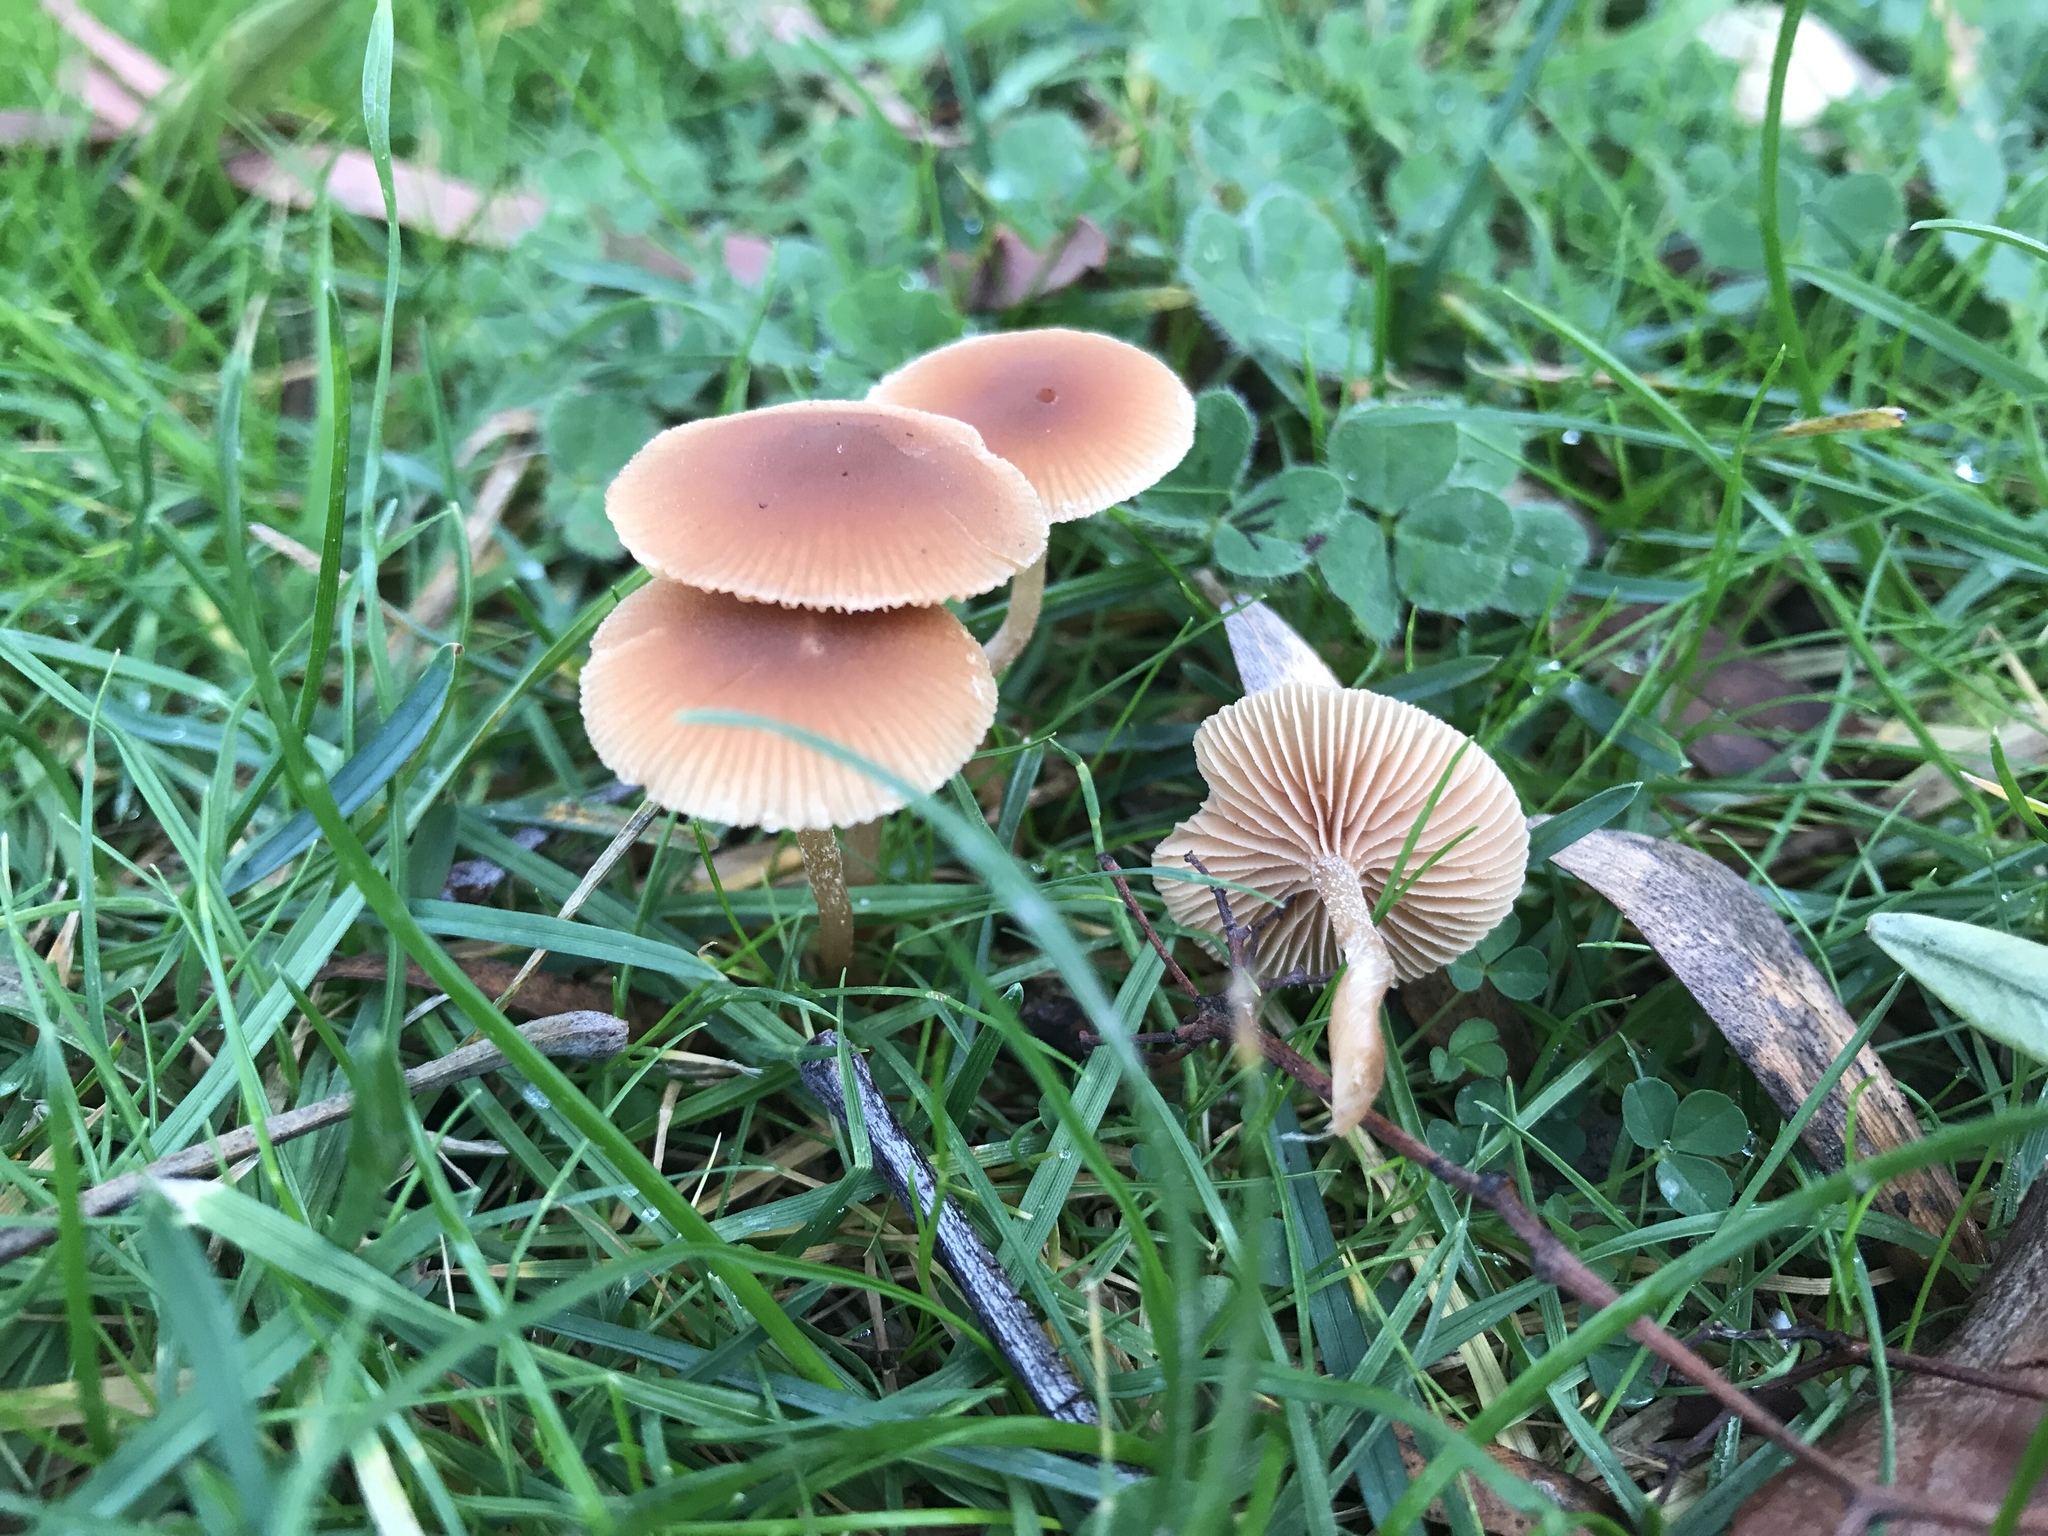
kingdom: Fungi
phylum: Basidiomycota
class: Agaricomycetes
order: Agaricales
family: Tubariaceae
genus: Tubaria
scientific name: Tubaria furfuracea
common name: Scurfy twiglet
